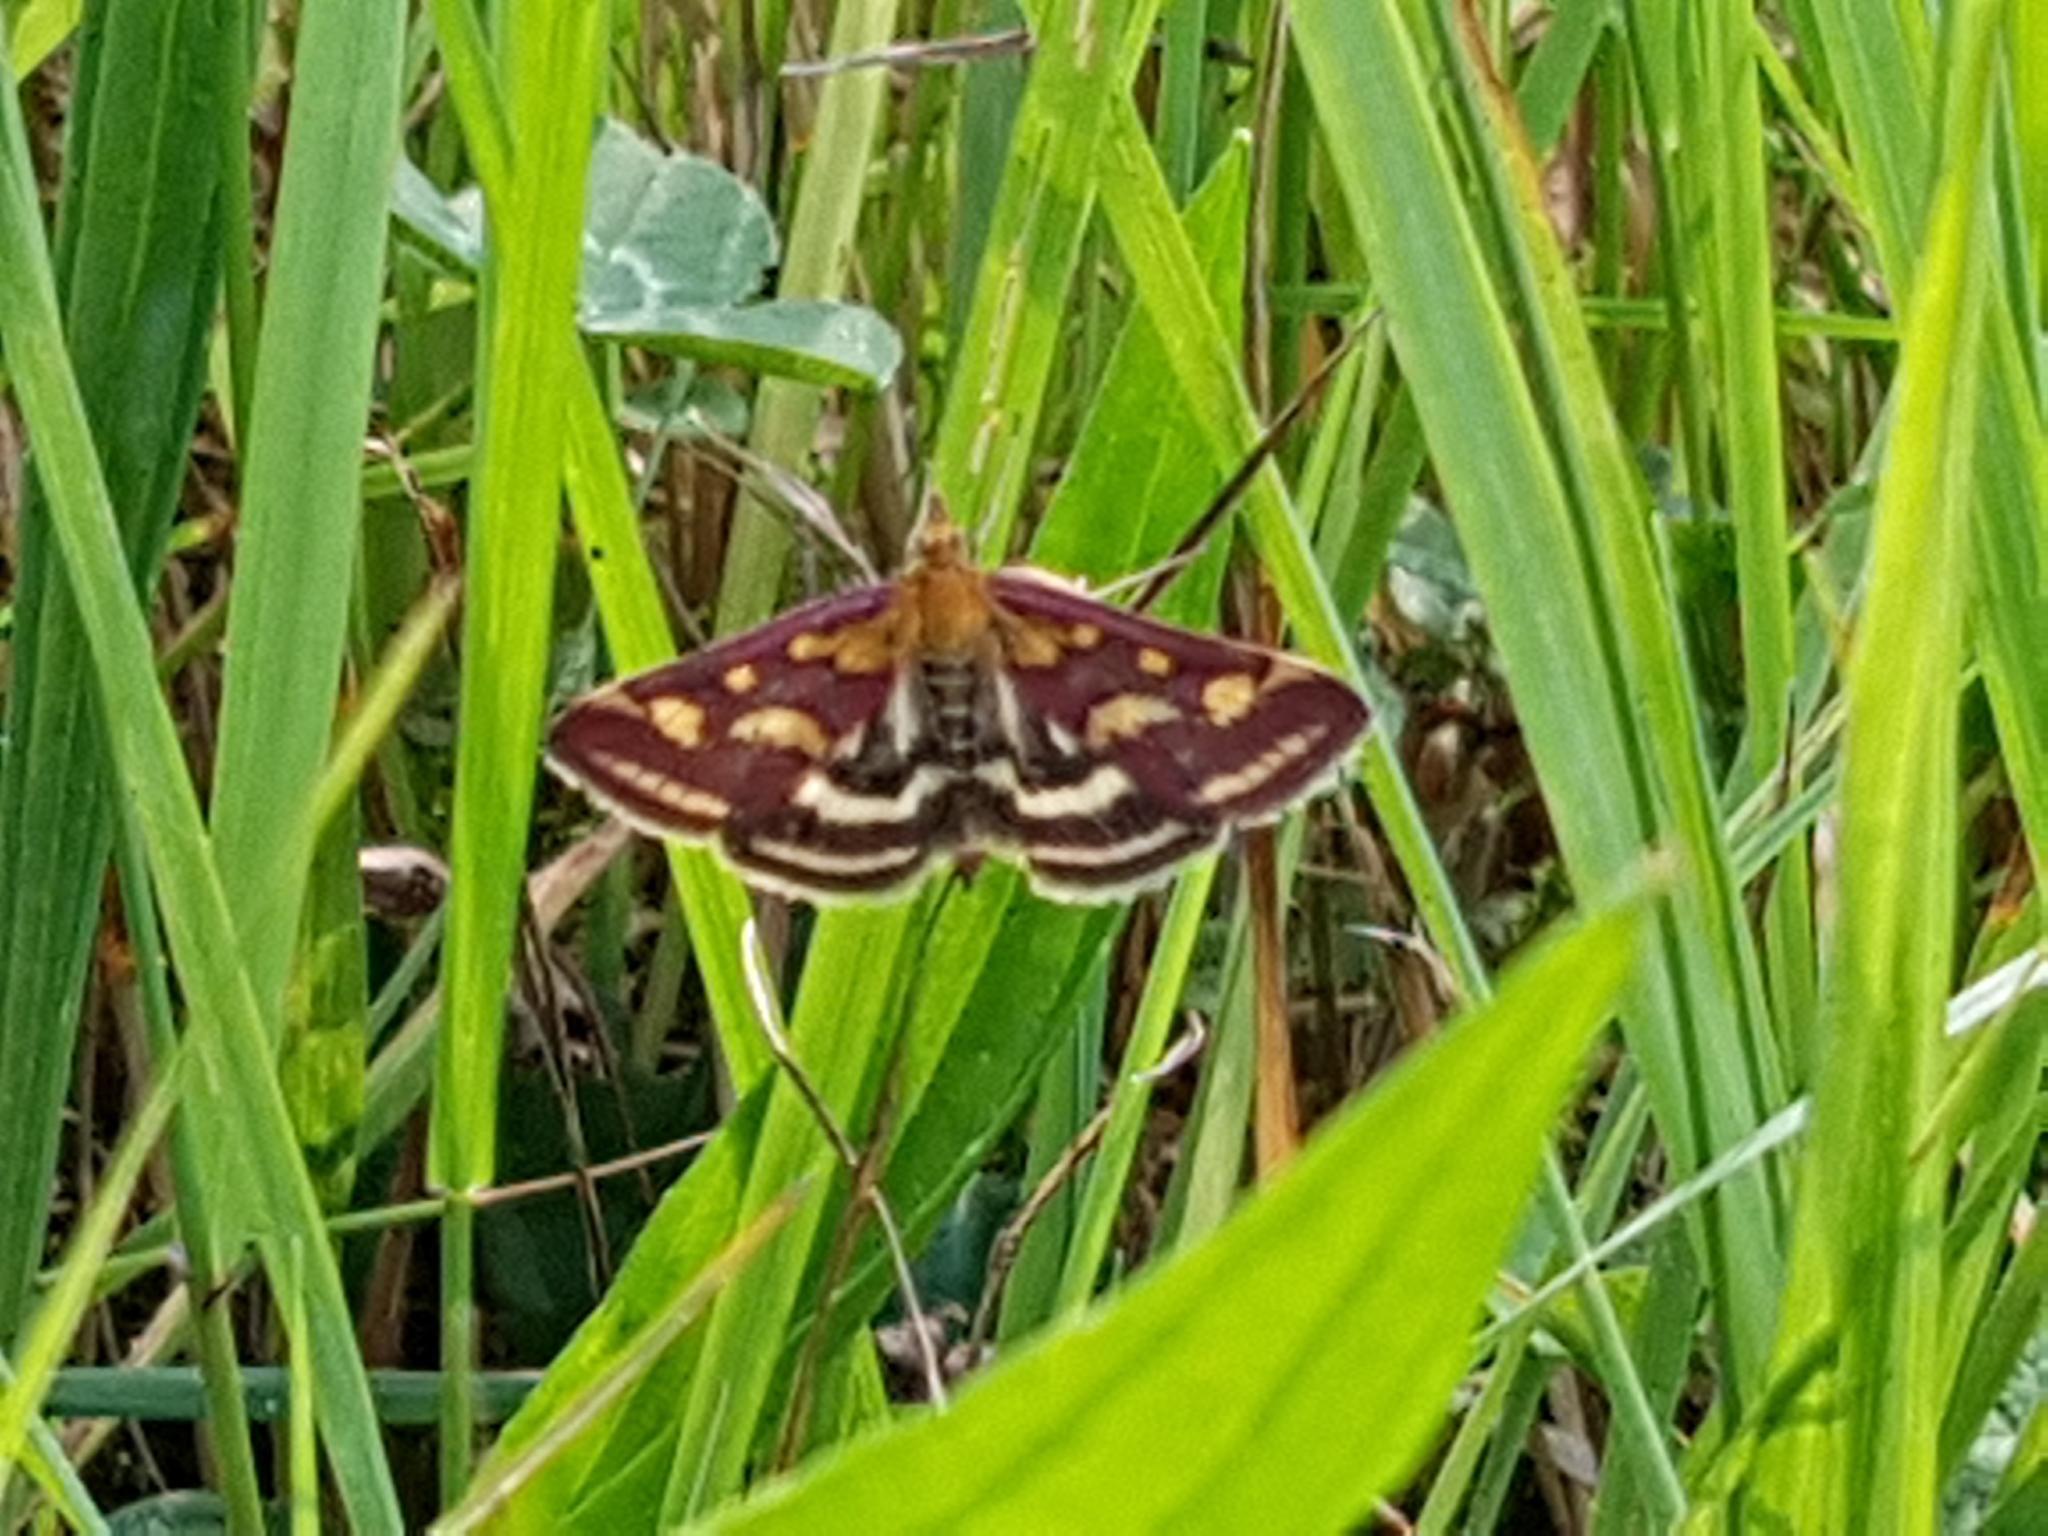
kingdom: Animalia
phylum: Arthropoda
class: Insecta
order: Lepidoptera
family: Crambidae
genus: Pyrausta
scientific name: Pyrausta purpuralis
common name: Common purple & gold
